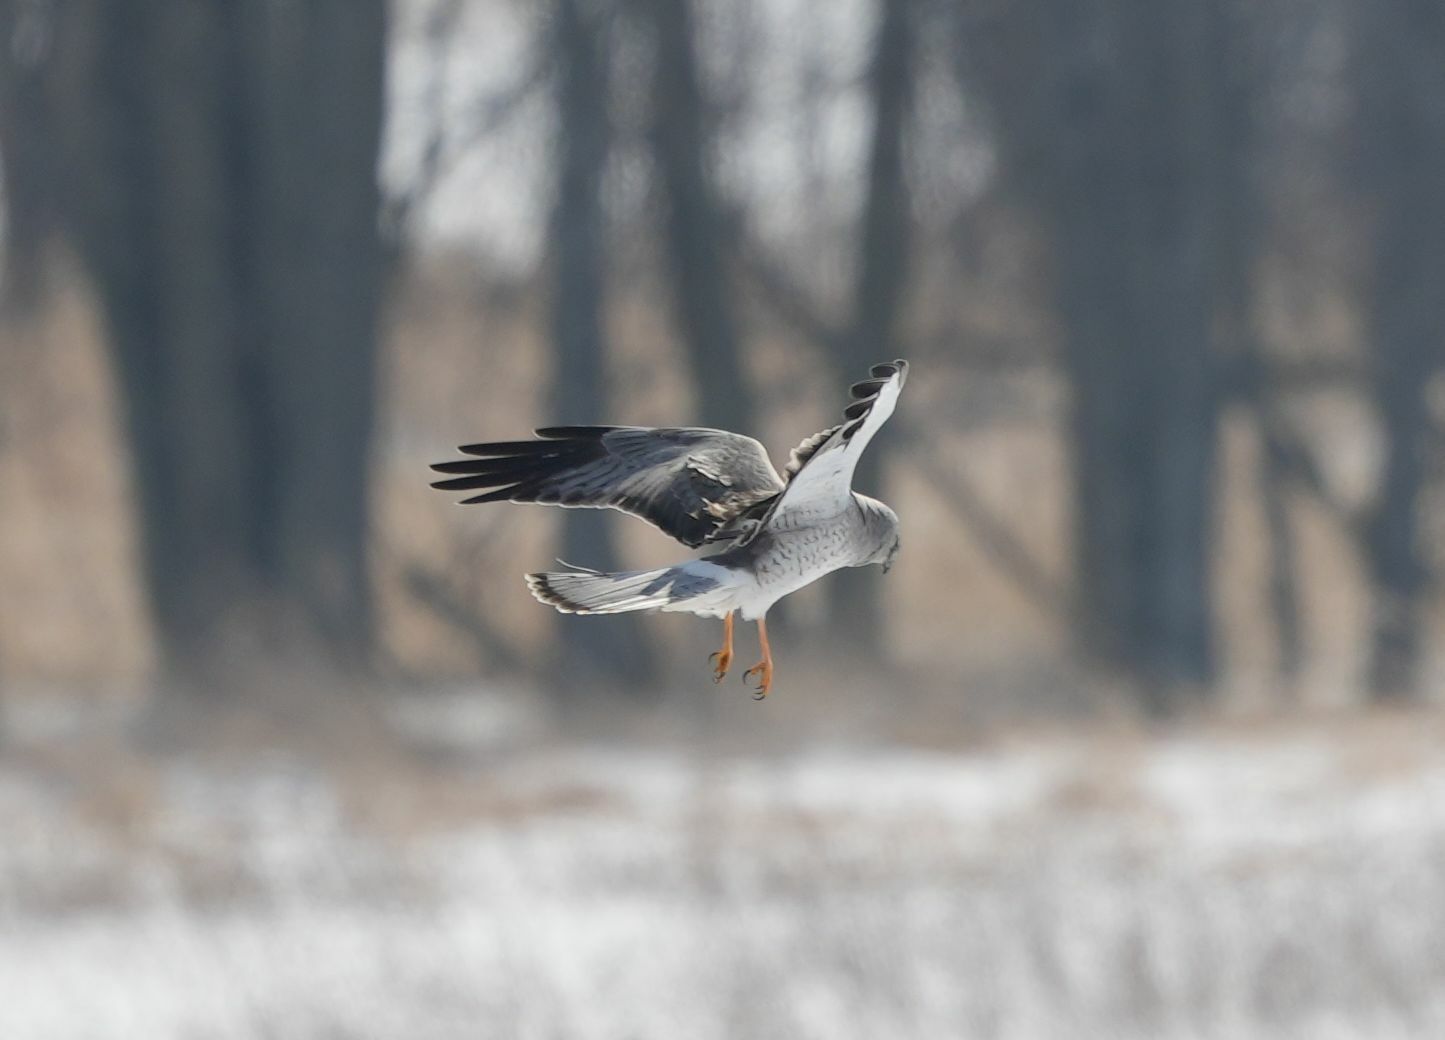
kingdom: Animalia
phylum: Chordata
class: Aves
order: Accipitriformes
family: Accipitridae
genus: Circus
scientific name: Circus cyaneus
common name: Hen harrier
